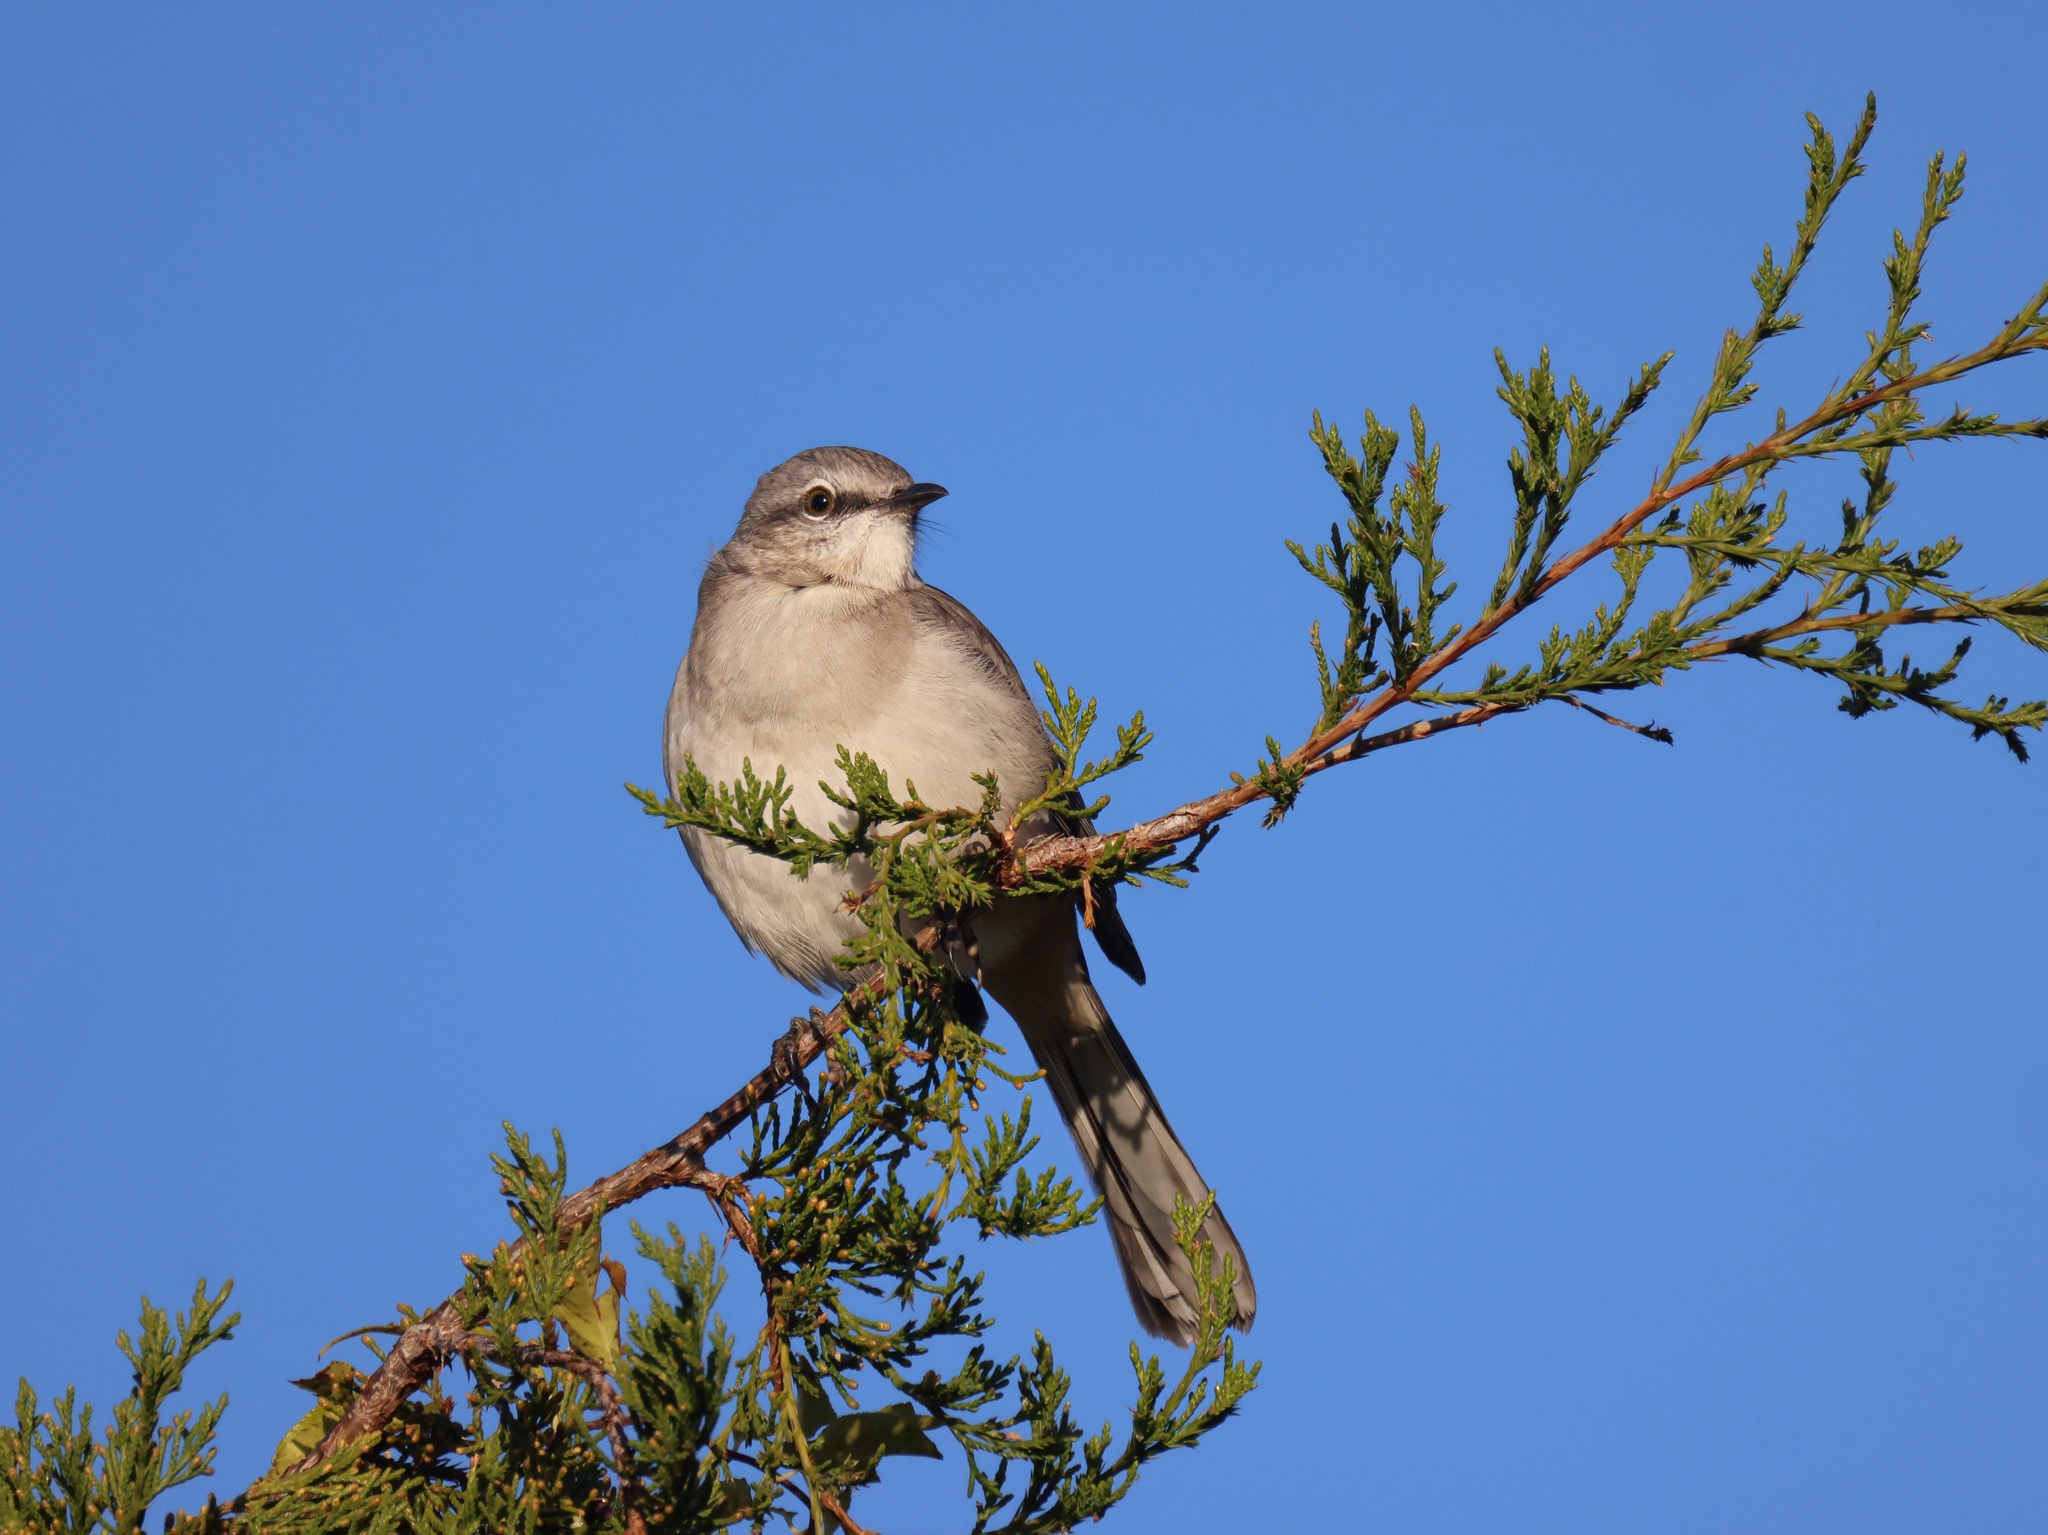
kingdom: Animalia
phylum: Chordata
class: Aves
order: Passeriformes
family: Mimidae
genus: Mimus
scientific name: Mimus polyglottos
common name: Northern mockingbird
